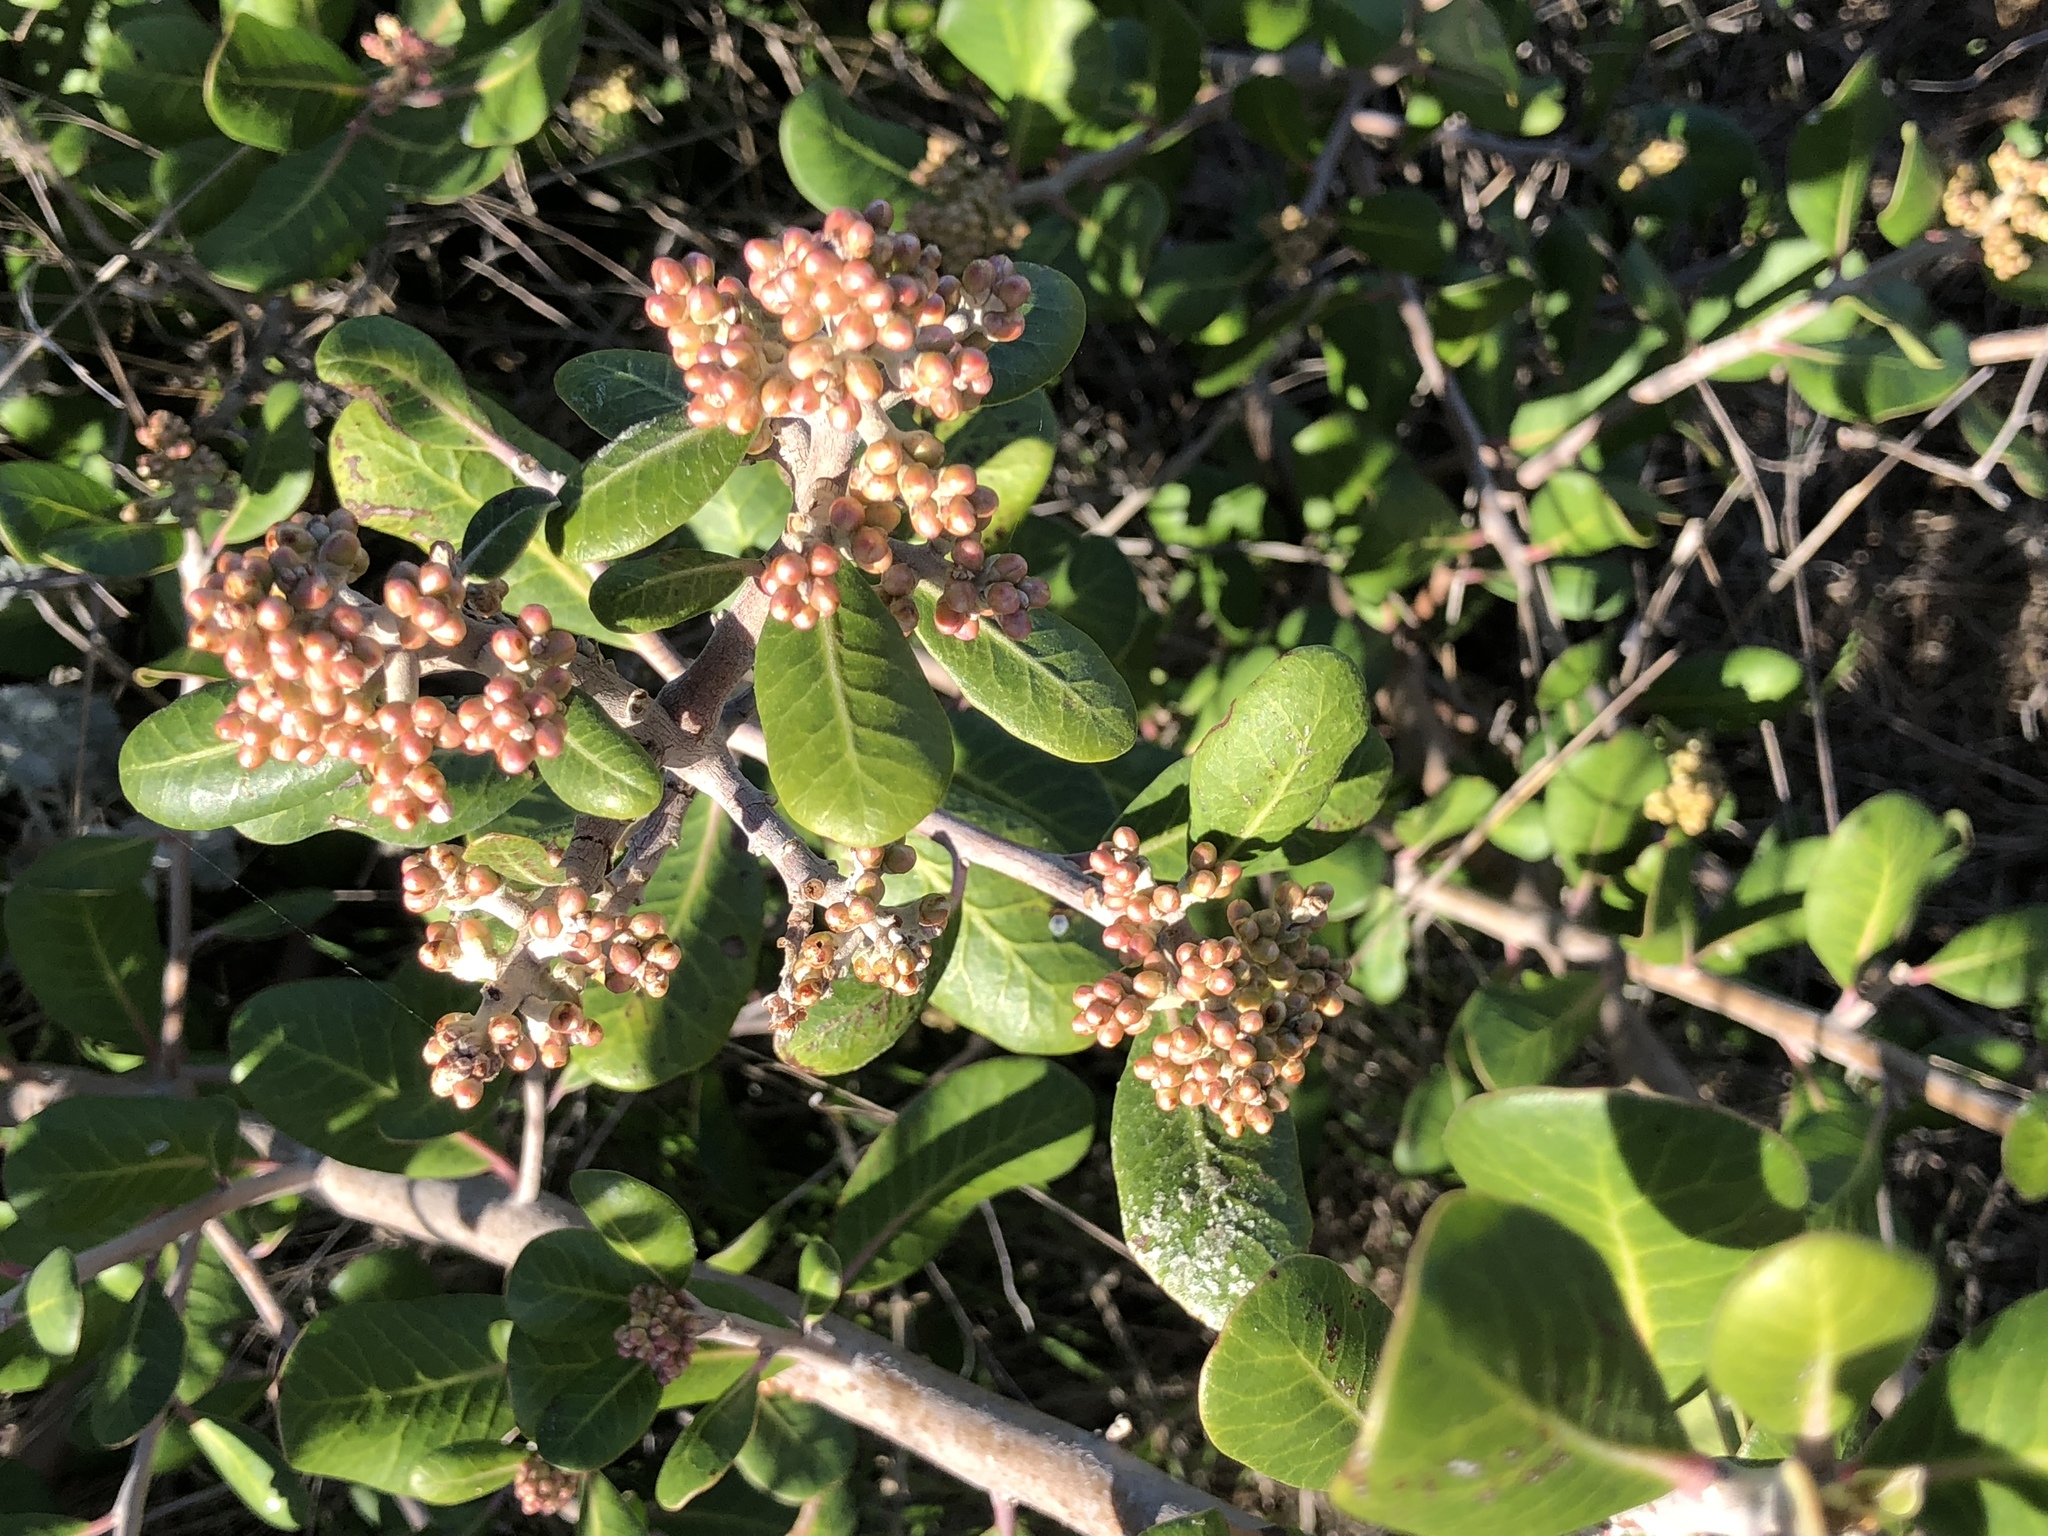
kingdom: Plantae
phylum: Tracheophyta
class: Magnoliopsida
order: Sapindales
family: Anacardiaceae
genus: Rhus
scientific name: Rhus integrifolia
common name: Lemonade sumac
